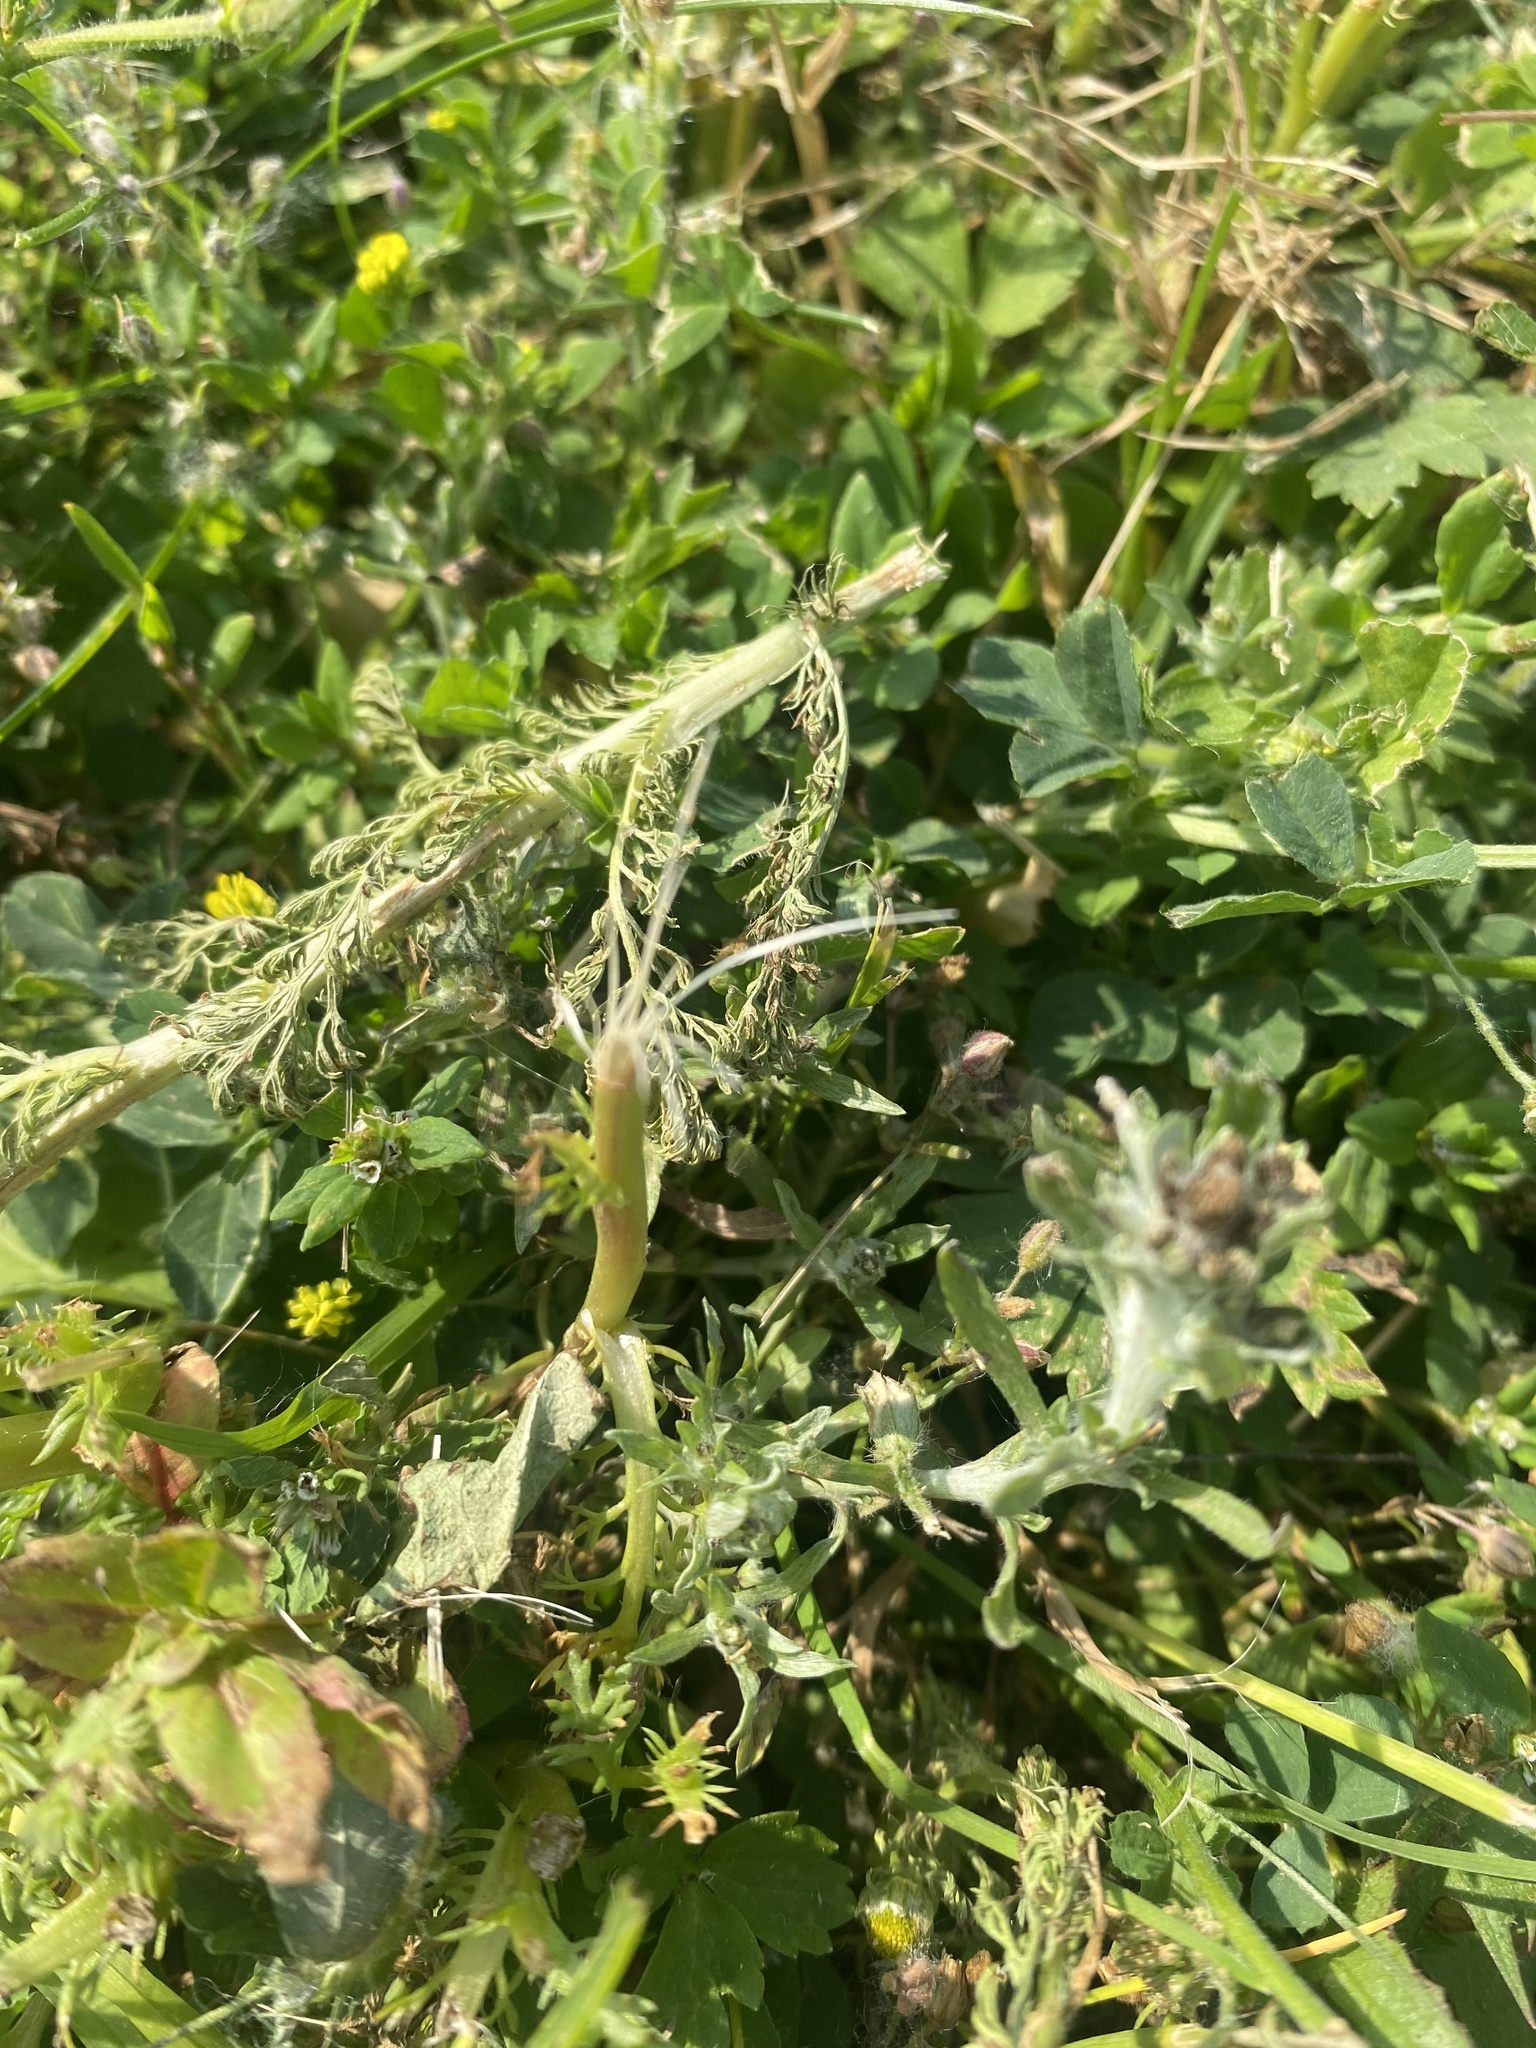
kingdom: Plantae
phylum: Tracheophyta
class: Magnoliopsida
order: Fabales
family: Fabaceae
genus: Medicago
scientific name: Medicago lupulina
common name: Black medick
